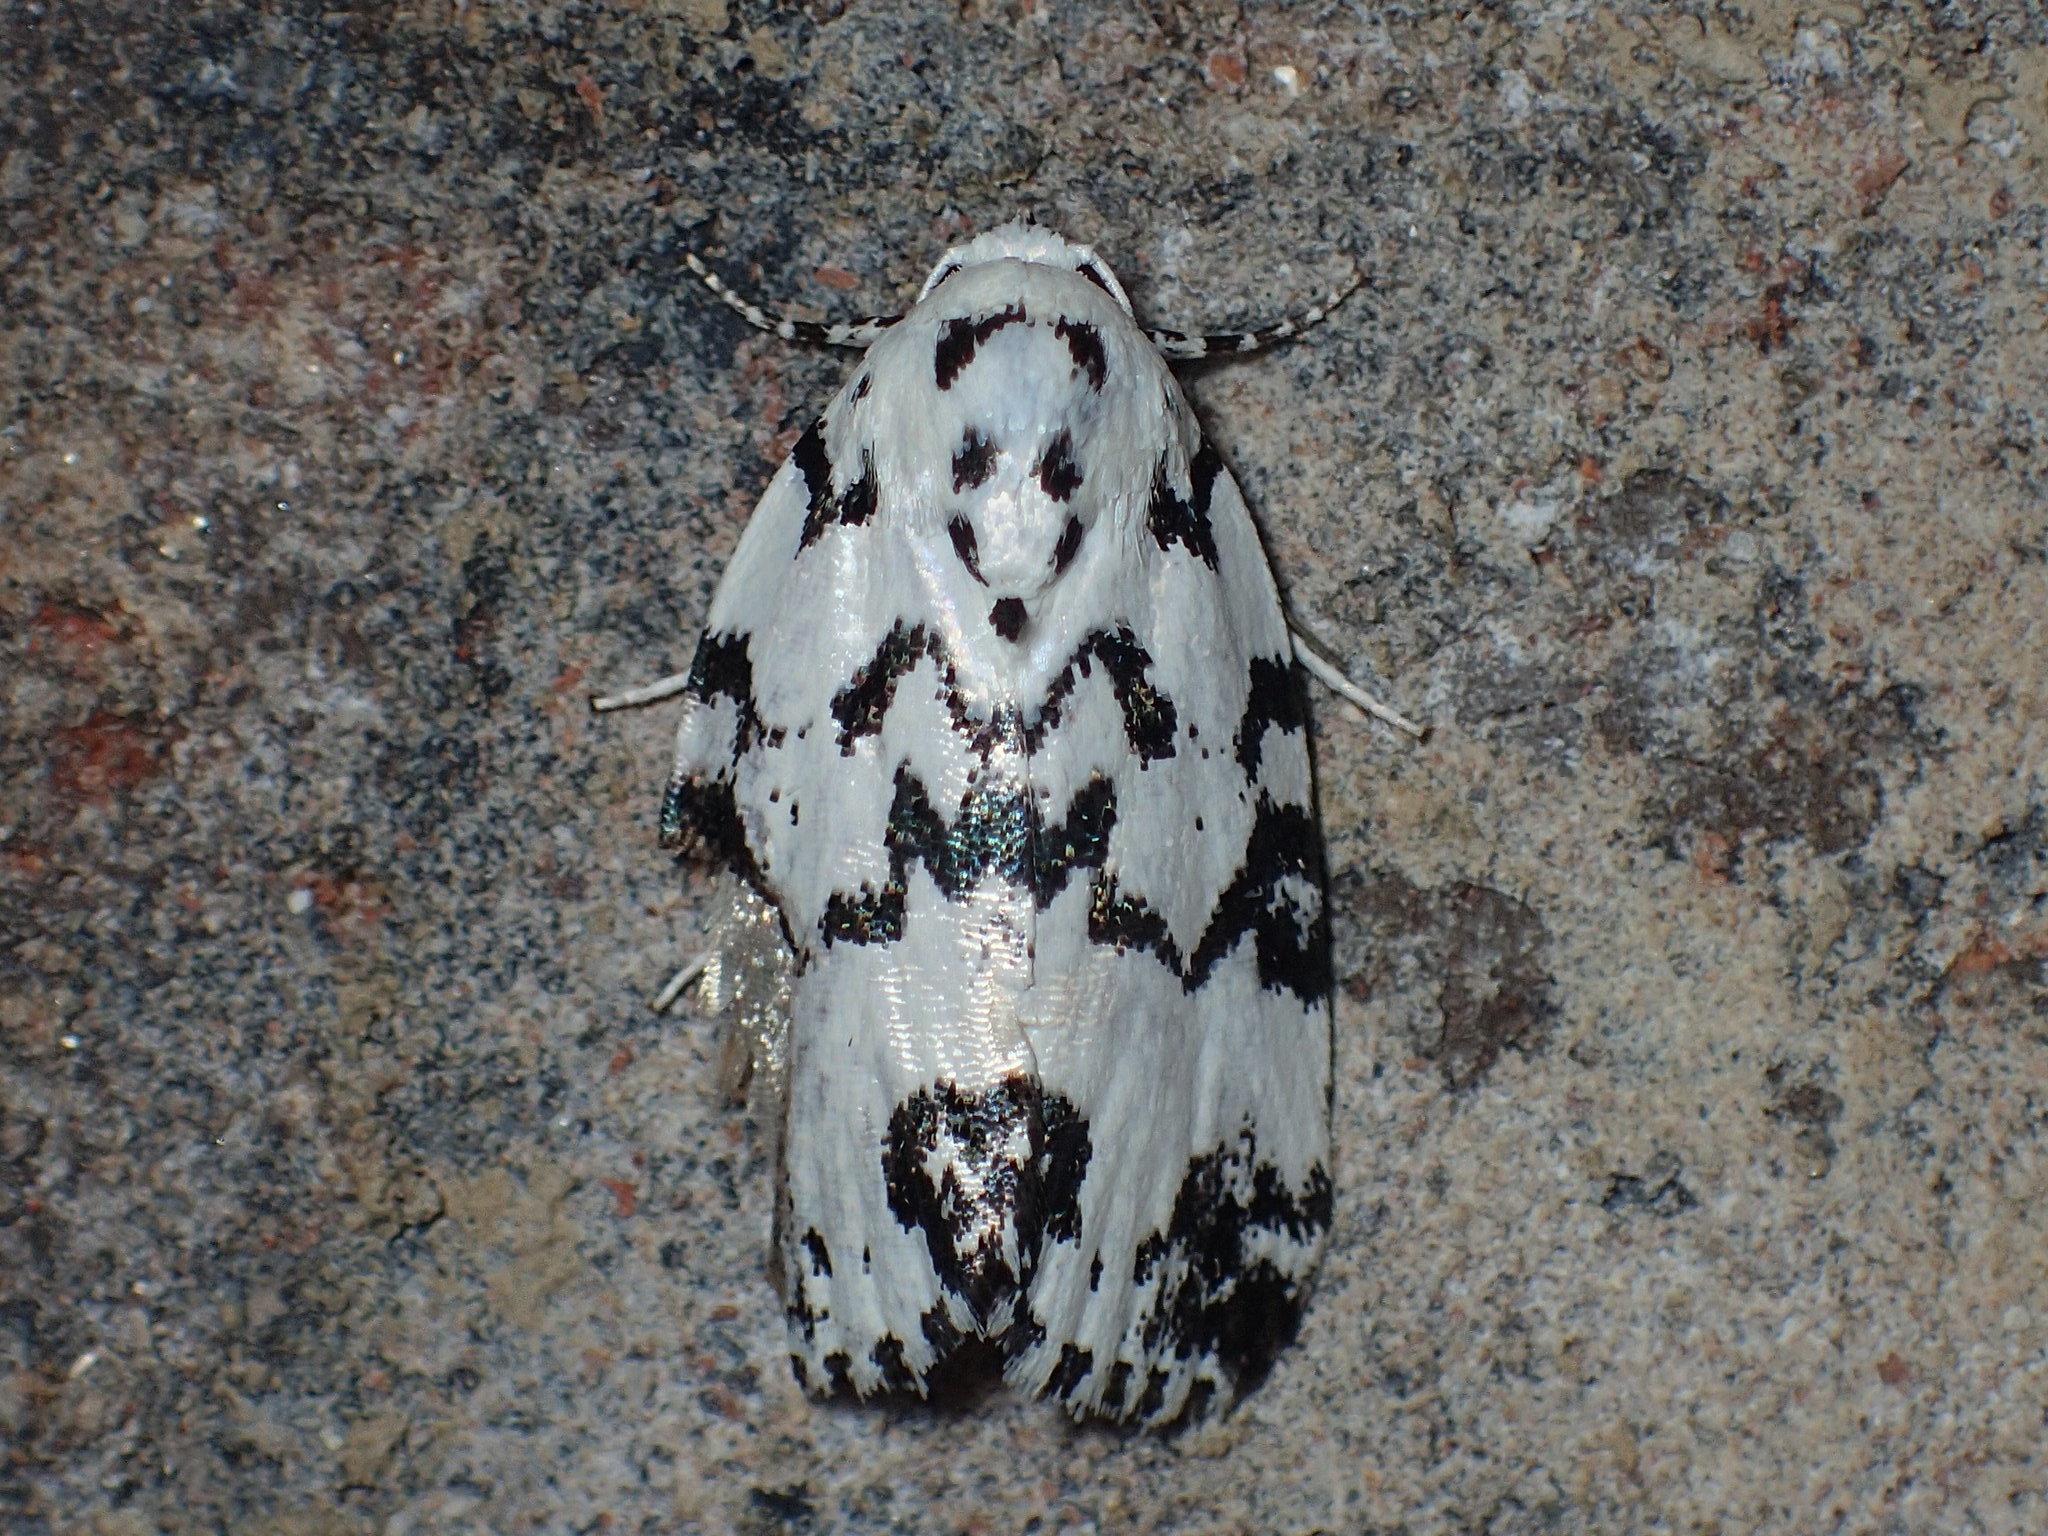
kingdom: Animalia
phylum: Arthropoda
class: Insecta
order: Lepidoptera
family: Noctuidae
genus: Polygrammate
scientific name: Polygrammate hebraeicum
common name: Hebrew moth
